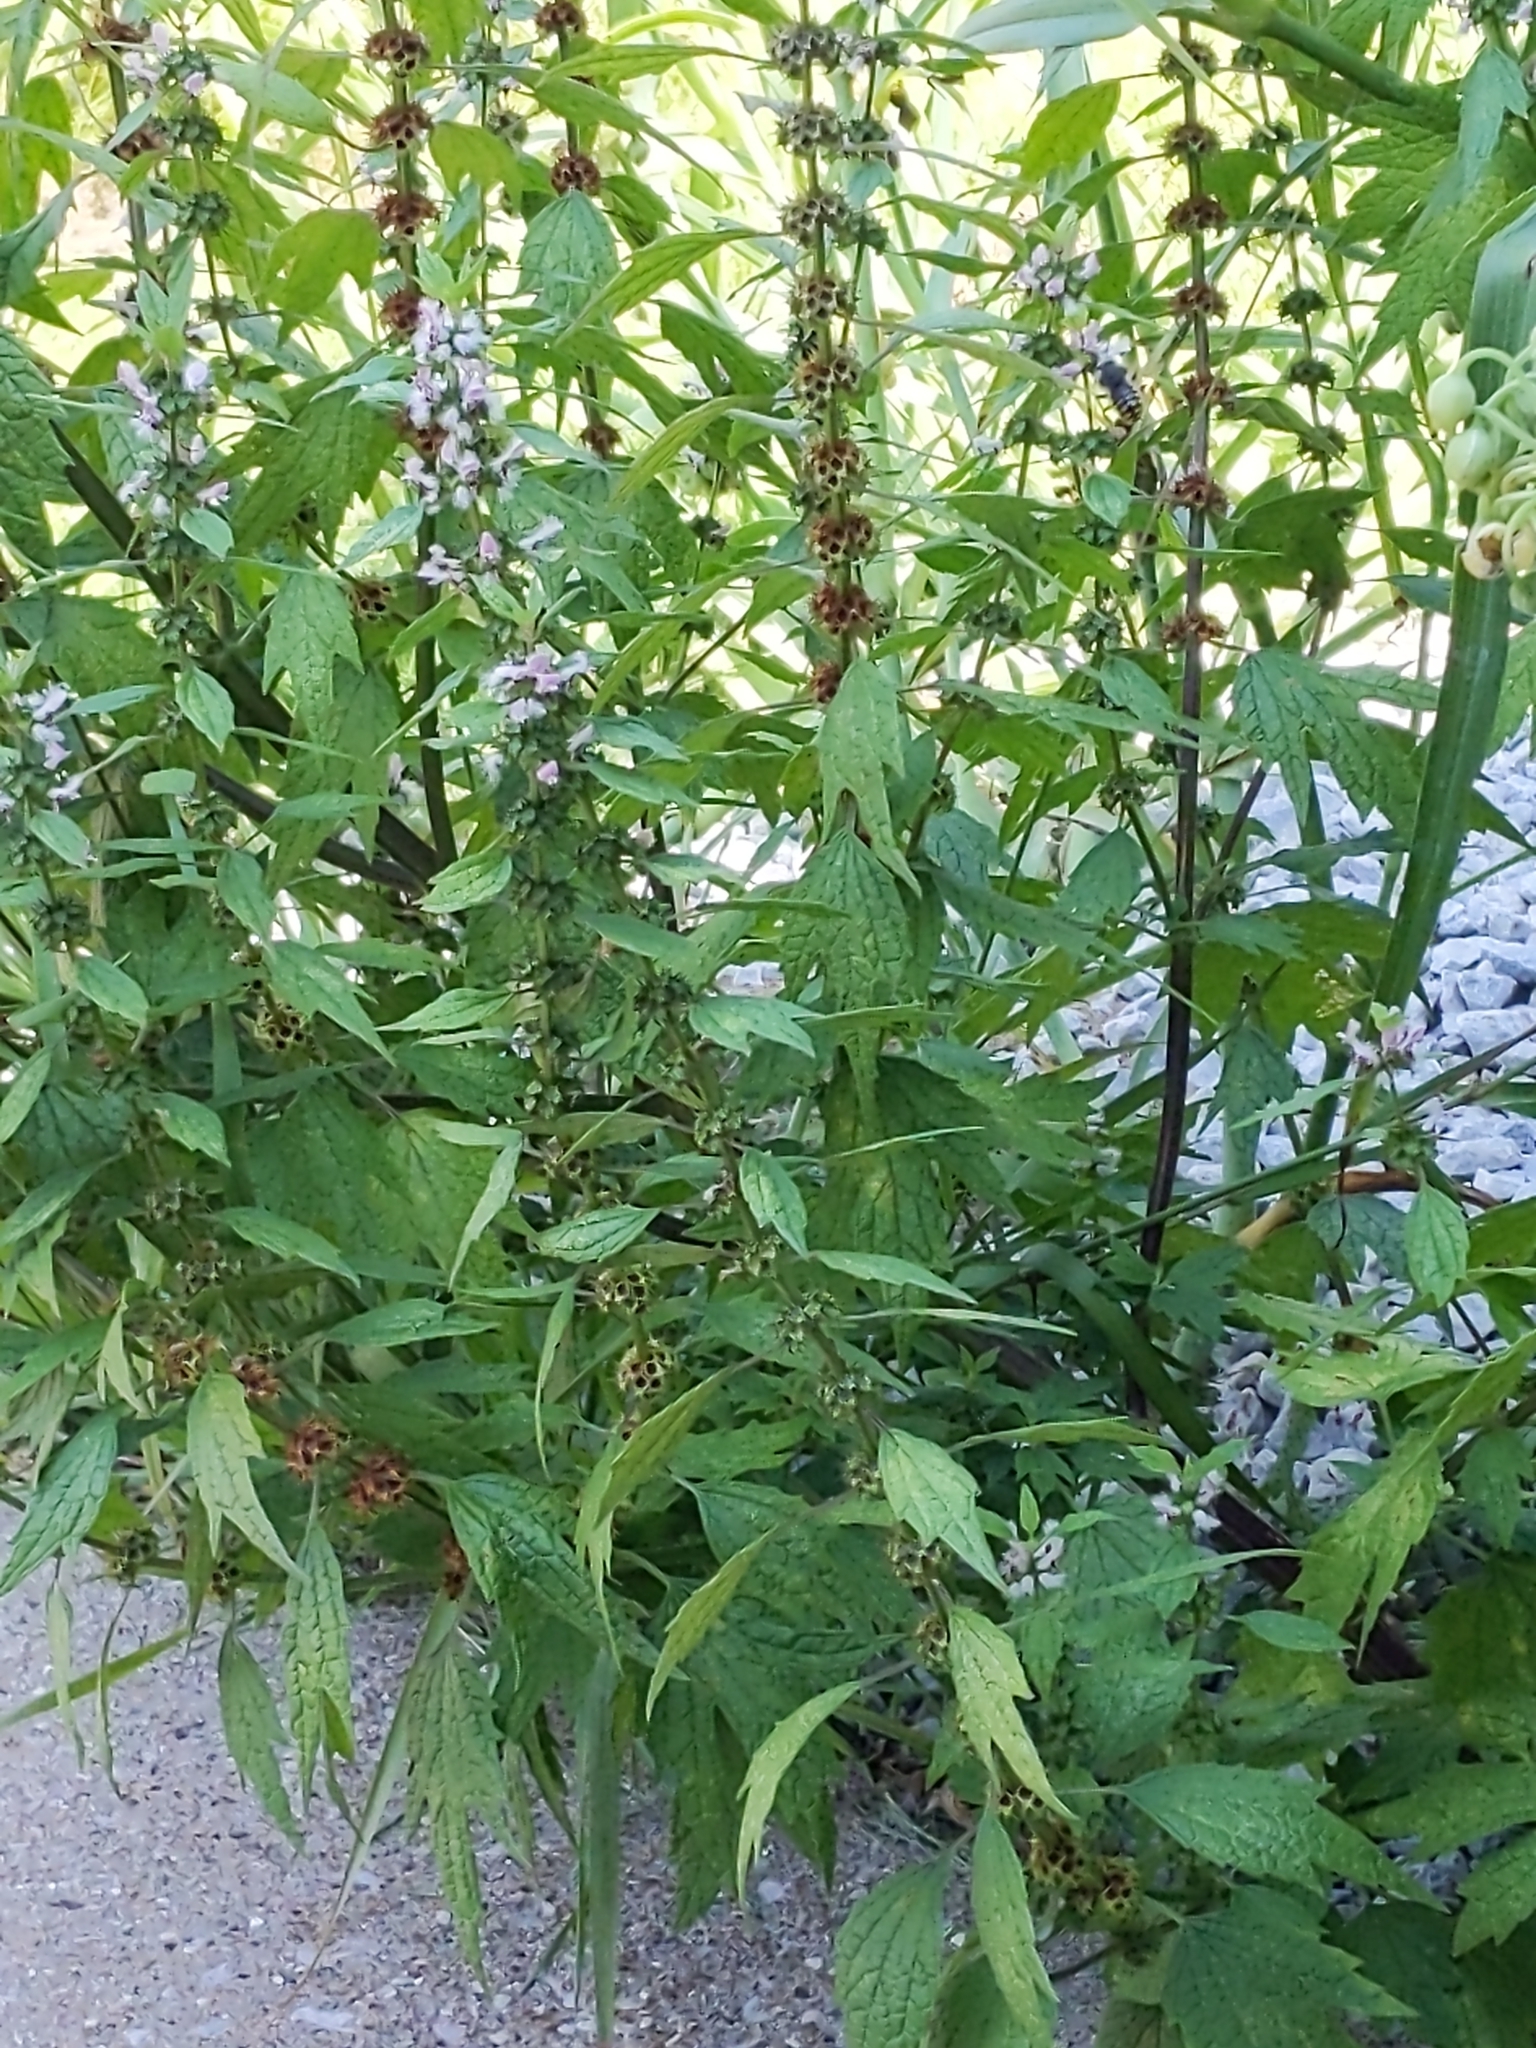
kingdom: Plantae
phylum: Tracheophyta
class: Magnoliopsida
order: Lamiales
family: Lamiaceae
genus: Leonurus
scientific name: Leonurus cardiaca
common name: Motherwort
